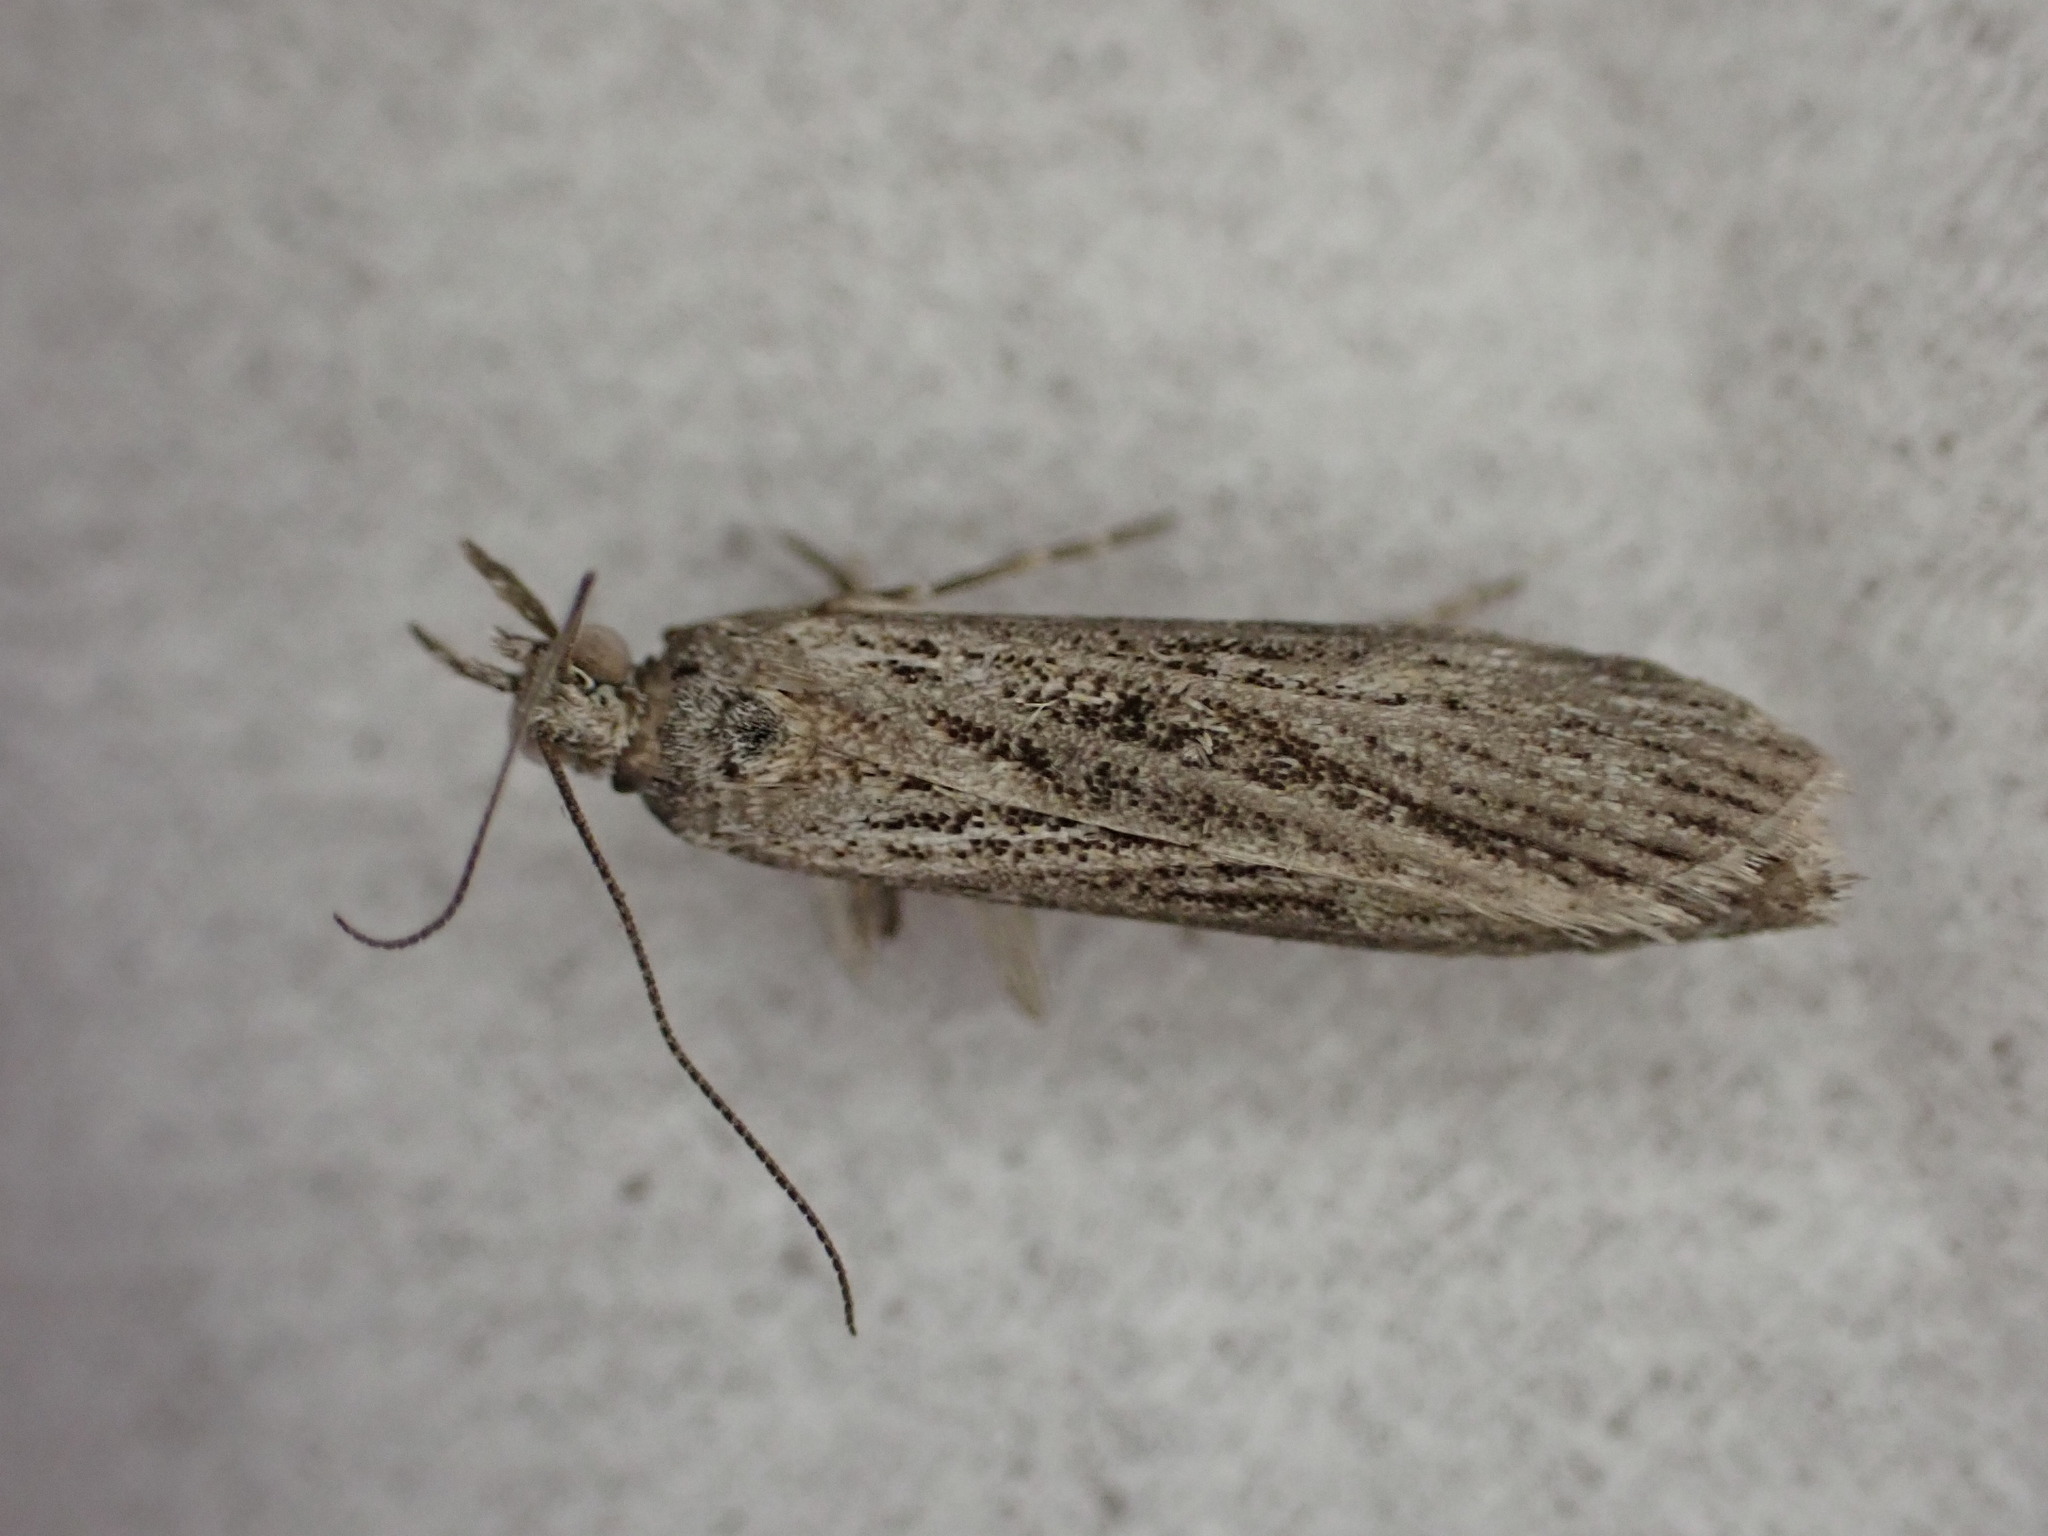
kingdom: Animalia
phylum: Arthropoda
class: Insecta
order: Lepidoptera
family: Crambidae
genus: Eudonia
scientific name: Eudonia atmogramma
